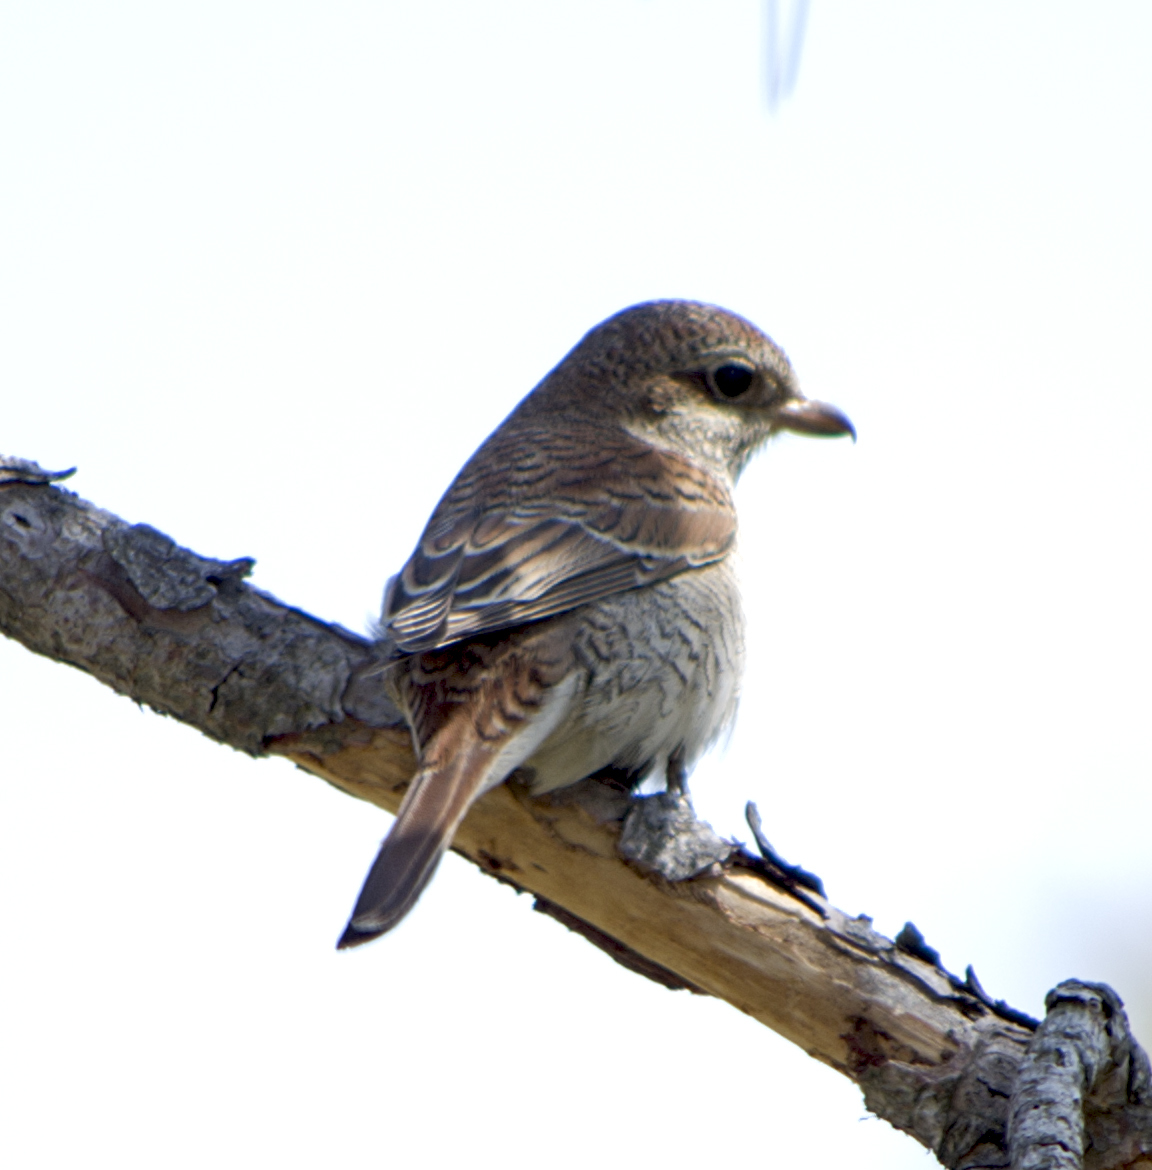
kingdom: Animalia
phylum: Chordata
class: Aves
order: Passeriformes
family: Laniidae
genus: Lanius
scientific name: Lanius collurio
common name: Red-backed shrike
